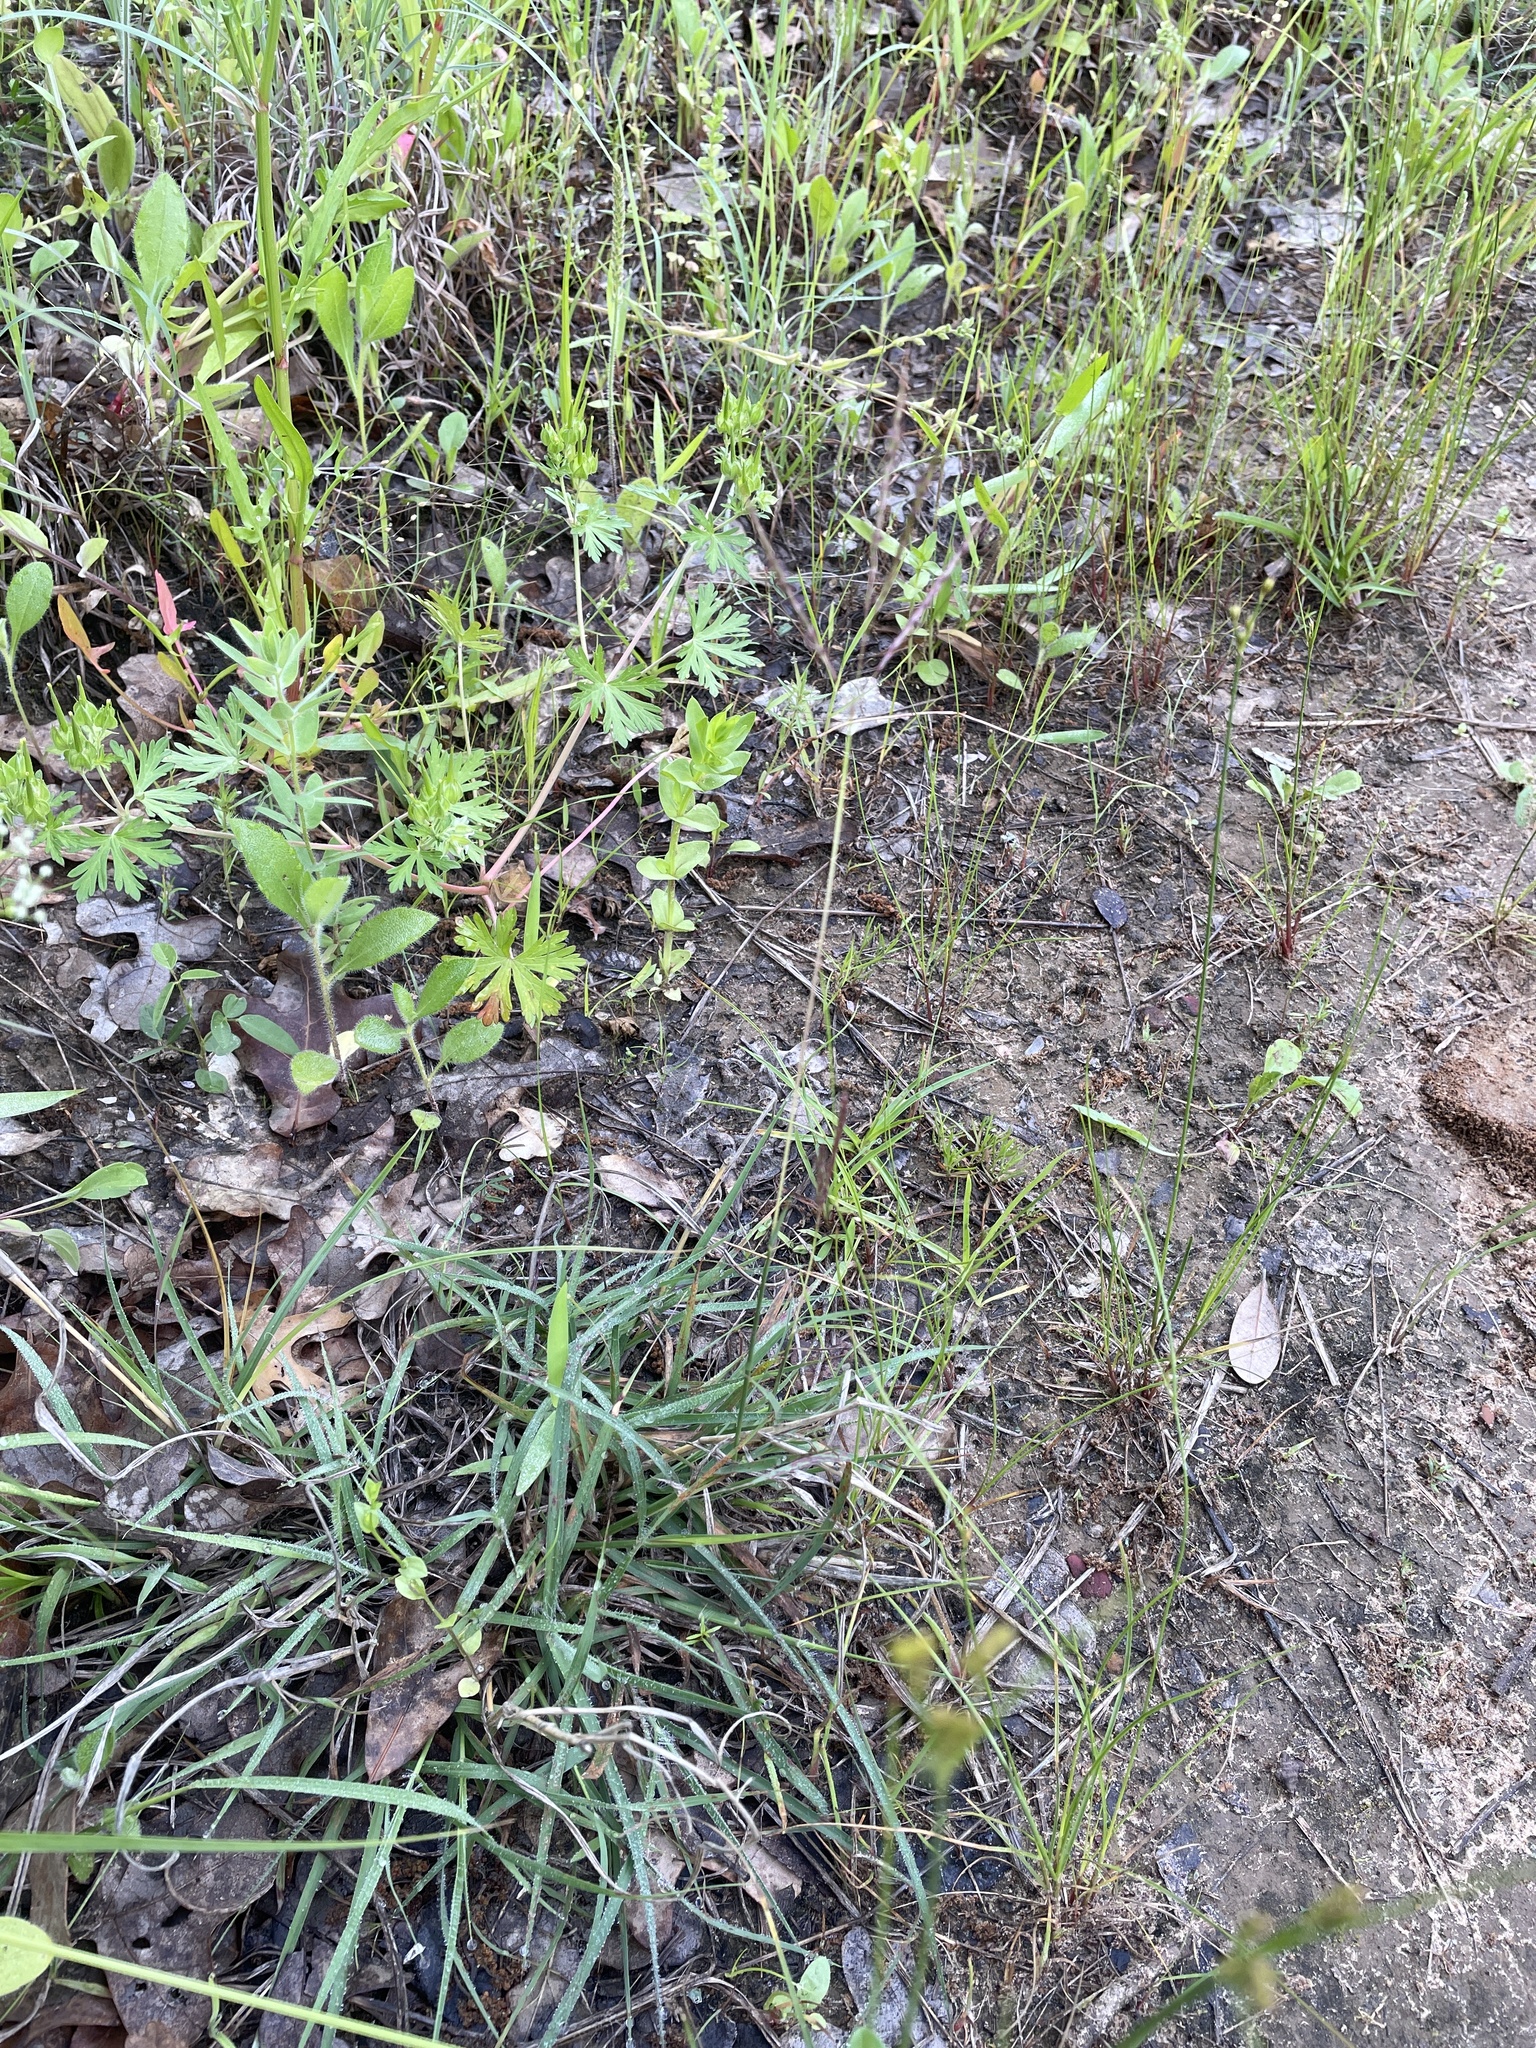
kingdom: Plantae
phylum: Tracheophyta
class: Liliopsida
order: Poales
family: Poaceae
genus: Bothriochloa
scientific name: Bothriochloa ischaemum
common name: Yellow bluestem
